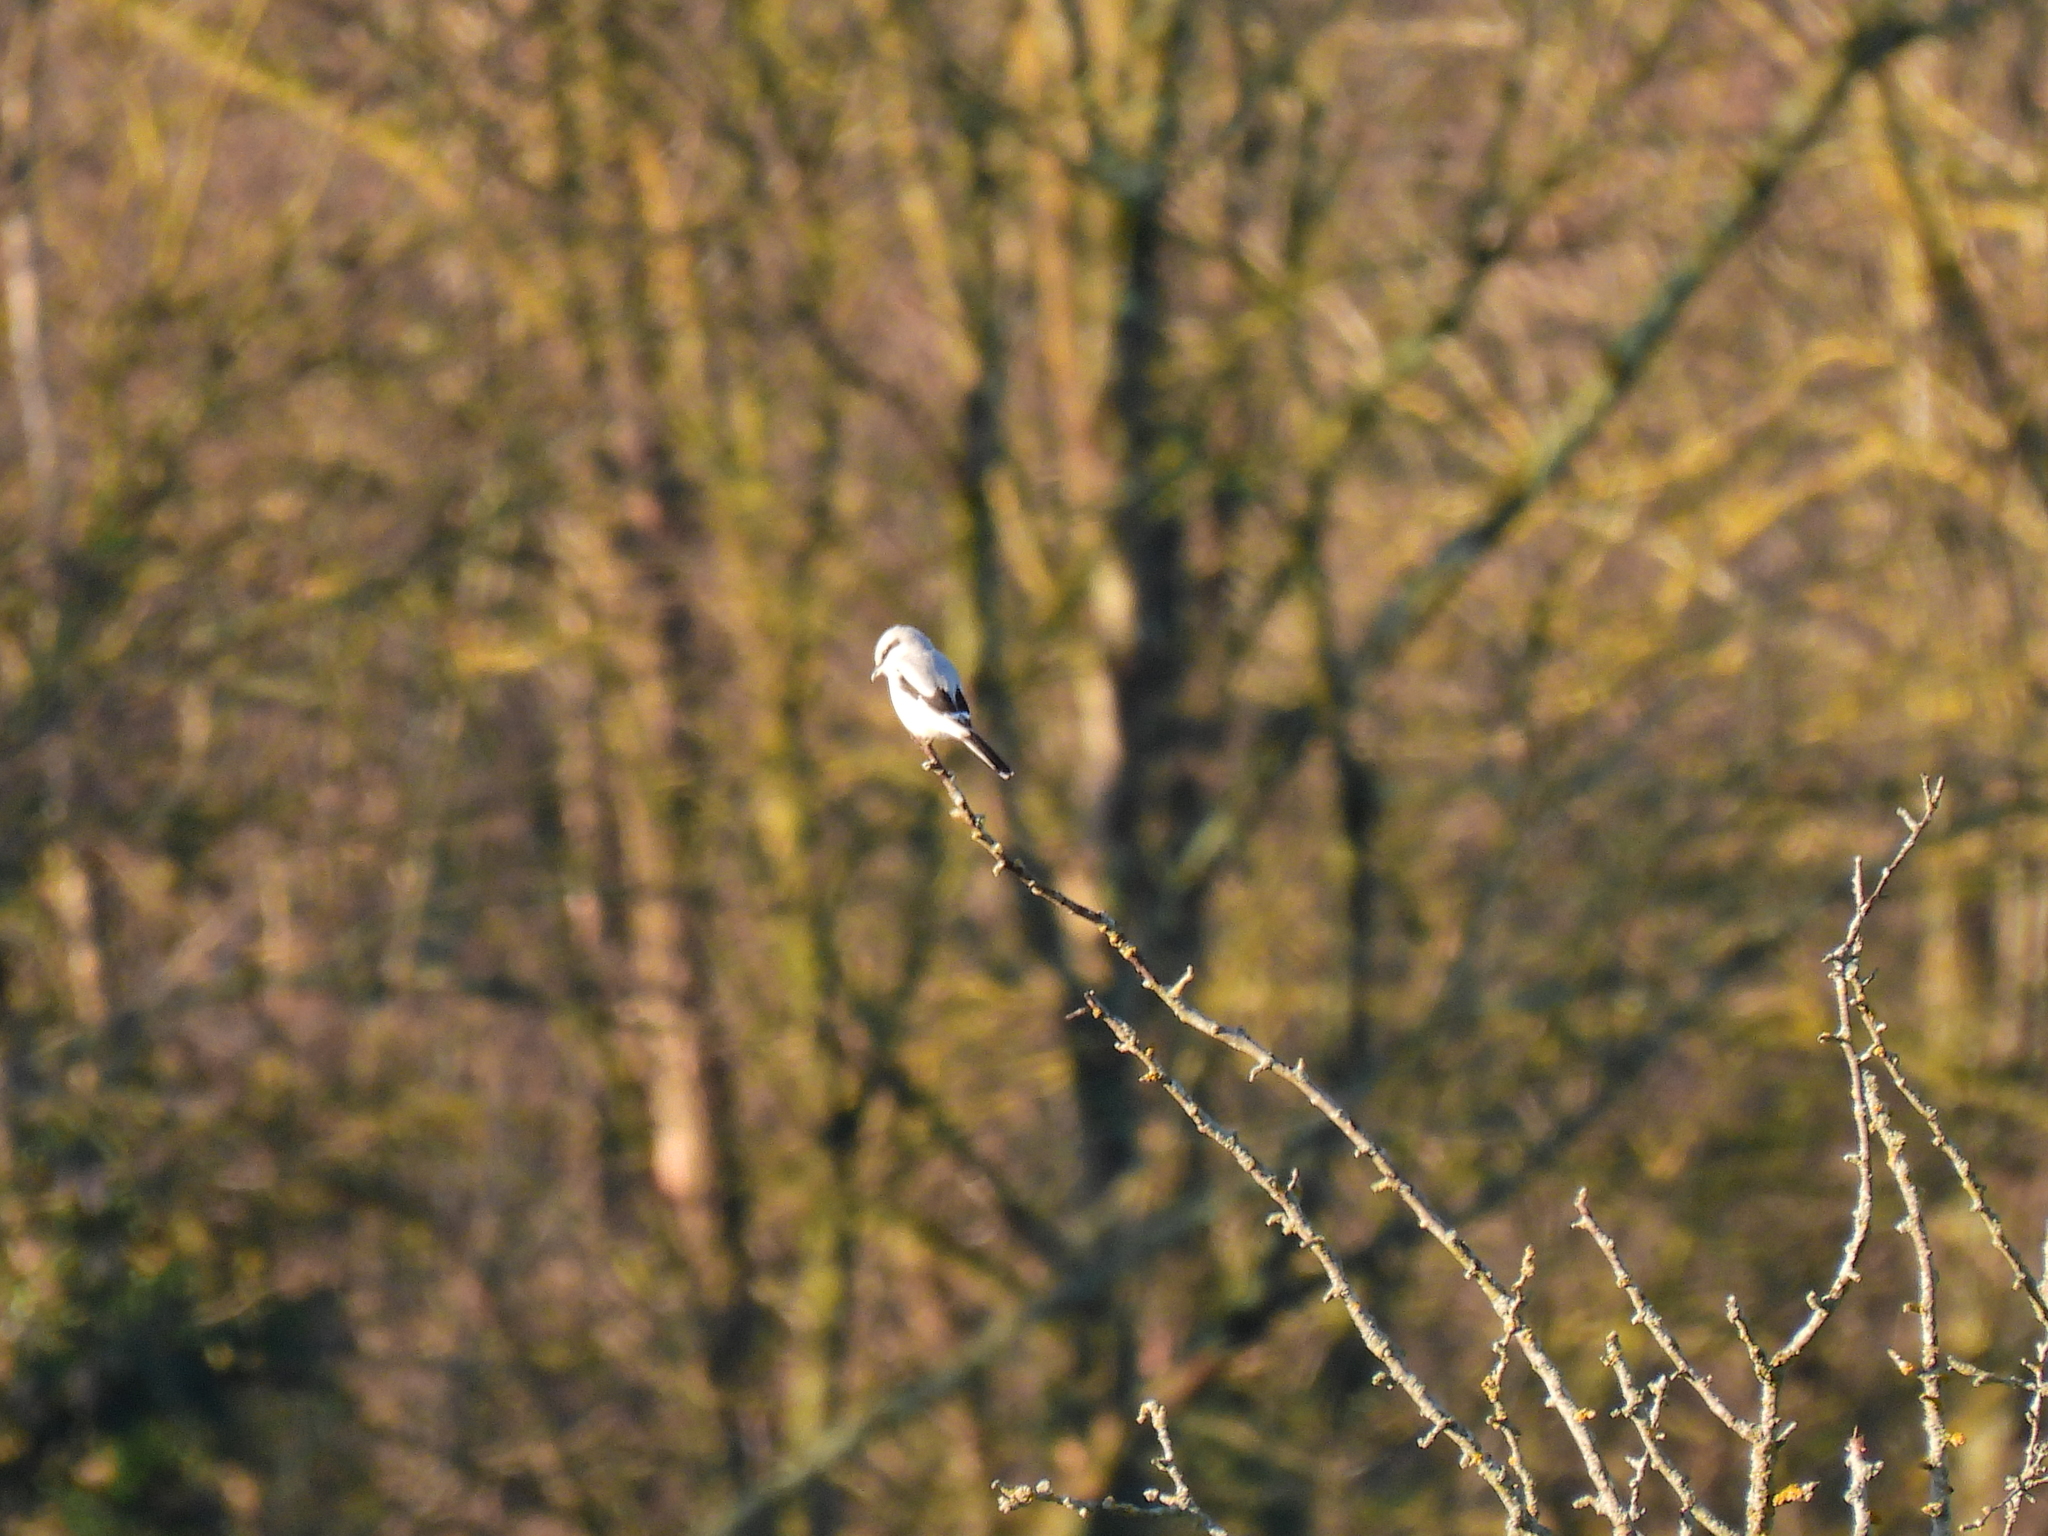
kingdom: Animalia
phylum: Chordata
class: Aves
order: Passeriformes
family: Laniidae
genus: Lanius
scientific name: Lanius excubitor
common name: Great grey shrike
